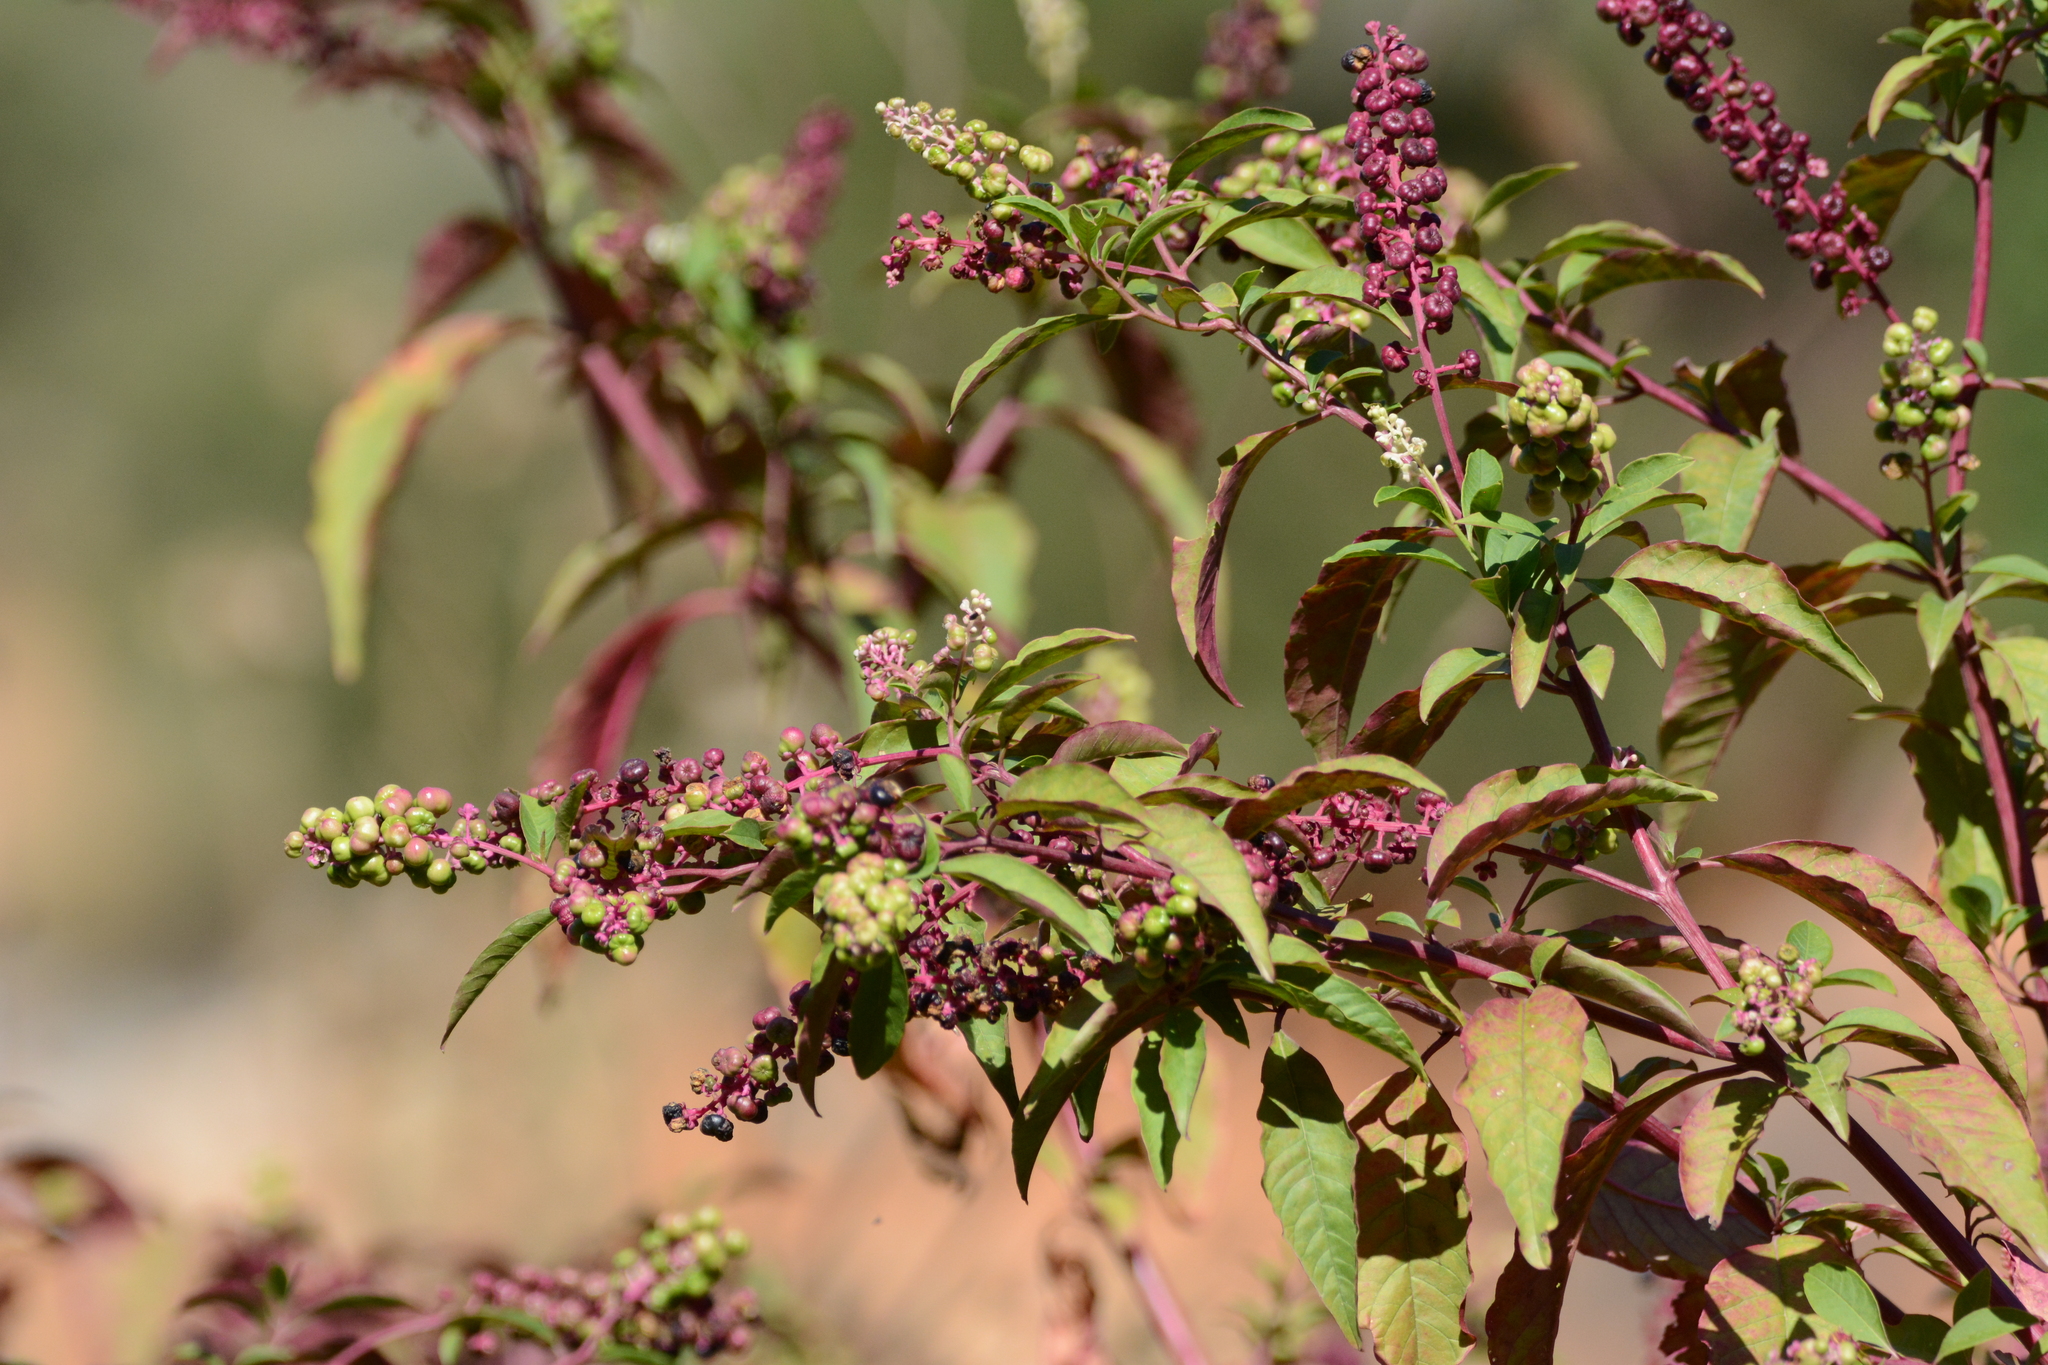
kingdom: Plantae
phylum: Tracheophyta
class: Magnoliopsida
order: Caryophyllales
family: Phytolaccaceae
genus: Phytolacca
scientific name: Phytolacca americana
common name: American pokeweed
